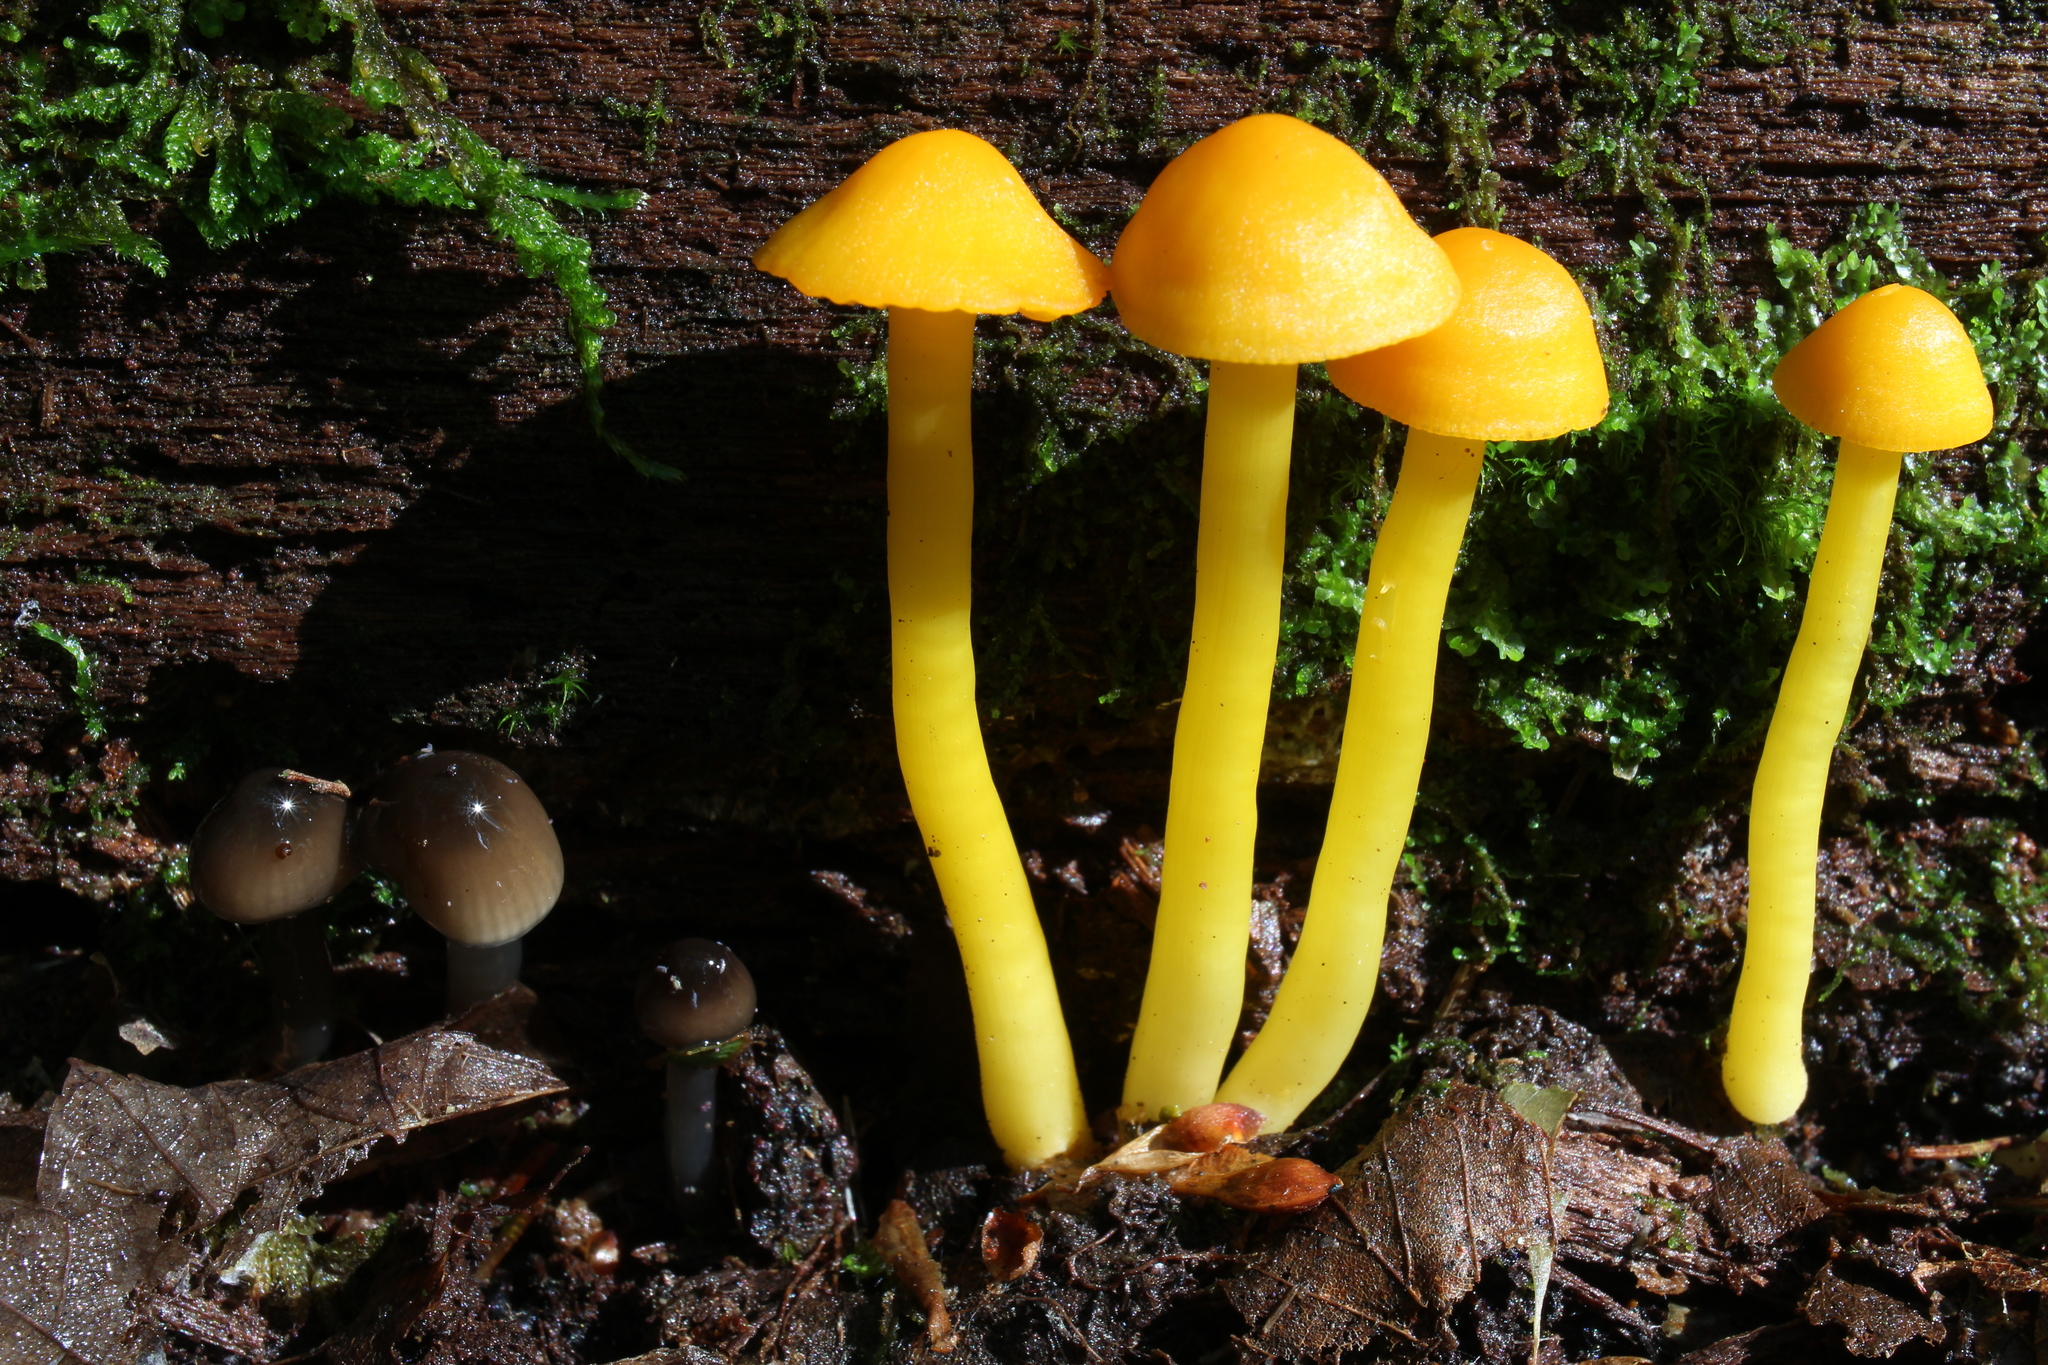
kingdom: Fungi
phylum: Basidiomycota
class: Agaricomycetes
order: Agaricales
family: Hygrophoraceae
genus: Humidicutis
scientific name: Humidicutis marginata
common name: Orange gilled waxcap
